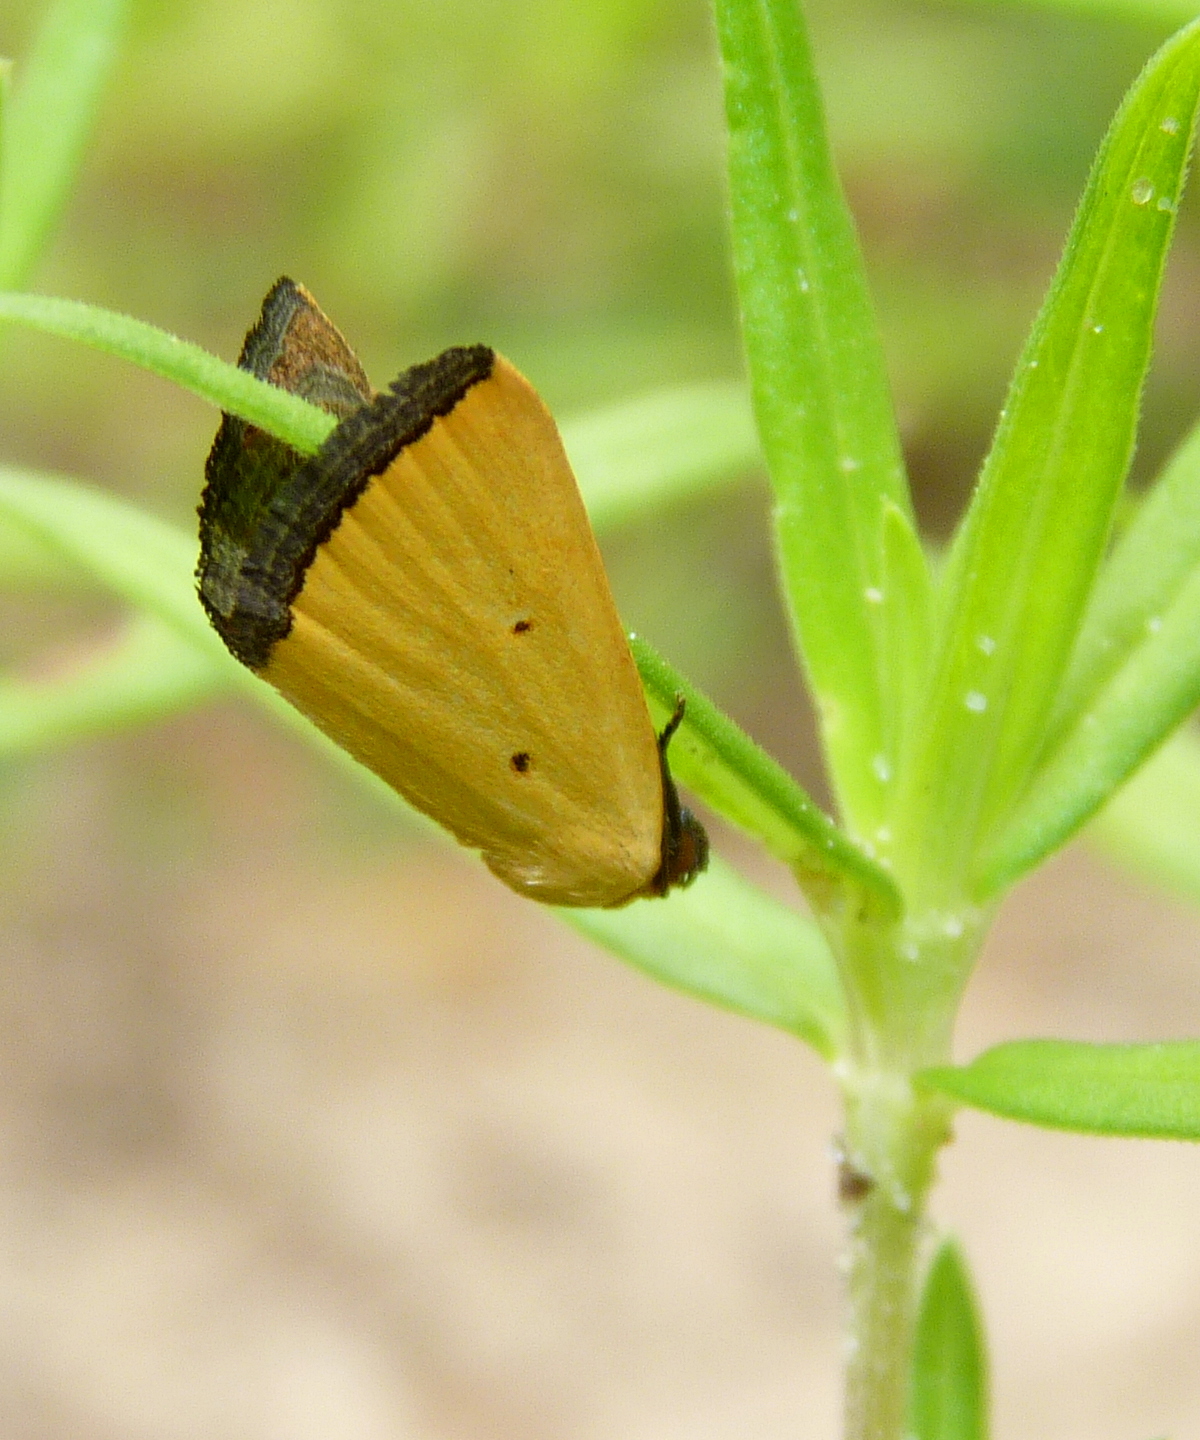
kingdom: Animalia
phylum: Arthropoda
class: Insecta
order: Lepidoptera
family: Noctuidae
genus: Marimatha
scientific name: Marimatha nigrofimbria
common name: Black-bordered lemon moth
